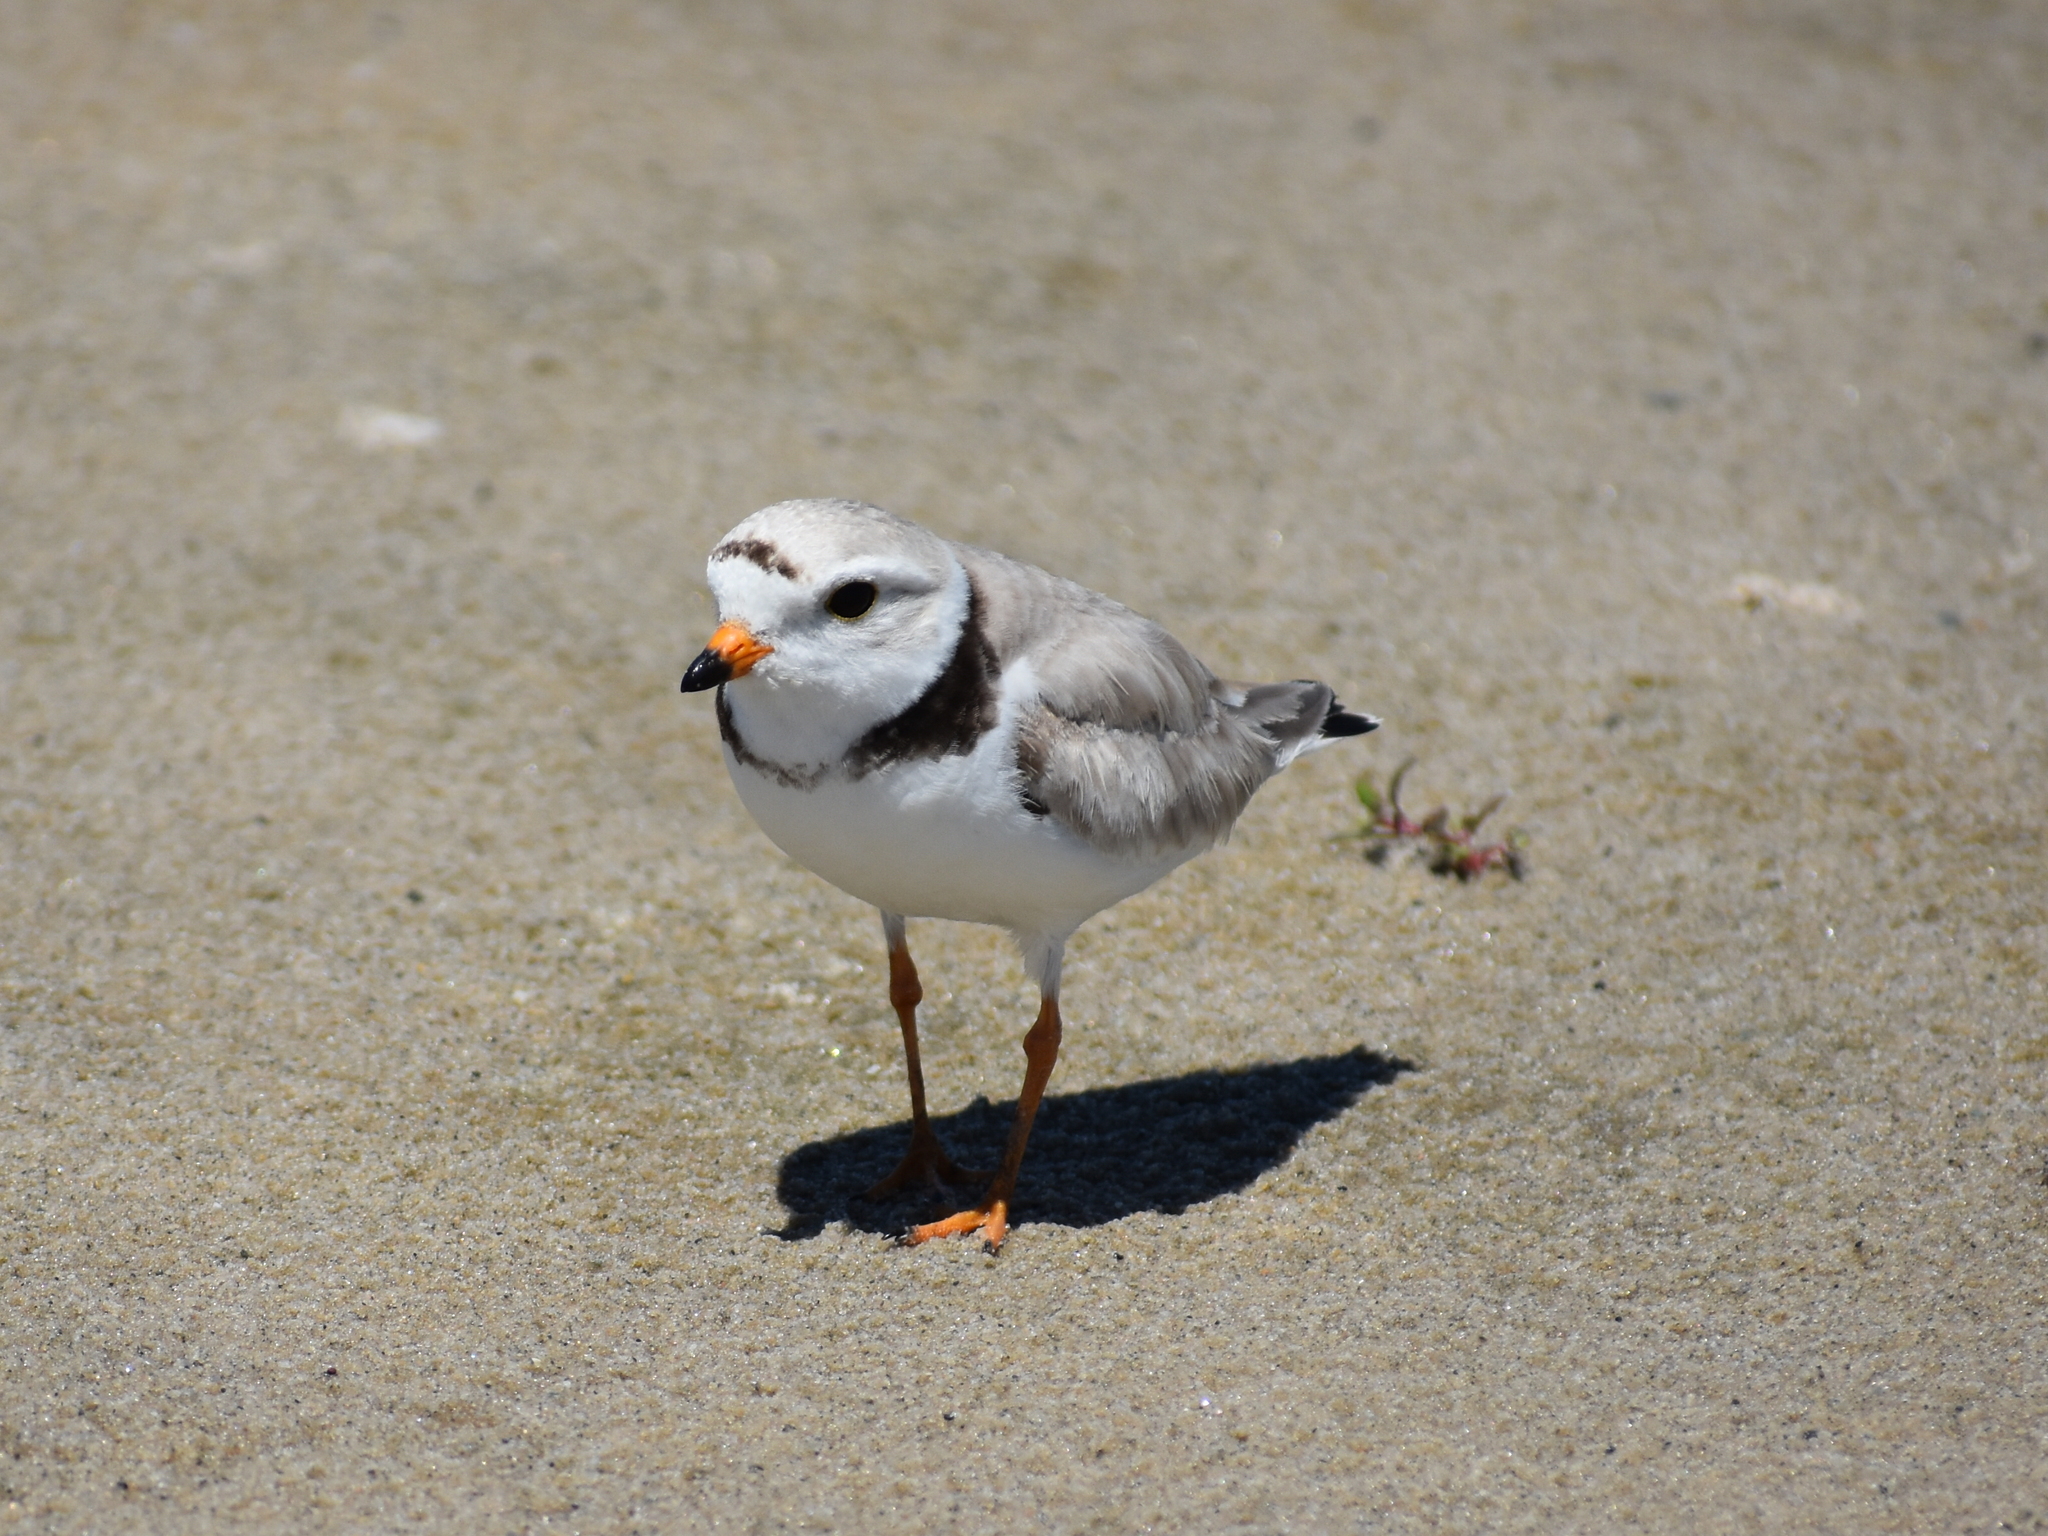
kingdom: Animalia
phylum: Chordata
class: Aves
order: Charadriiformes
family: Charadriidae
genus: Charadrius
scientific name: Charadrius melodus
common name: Piping plover
